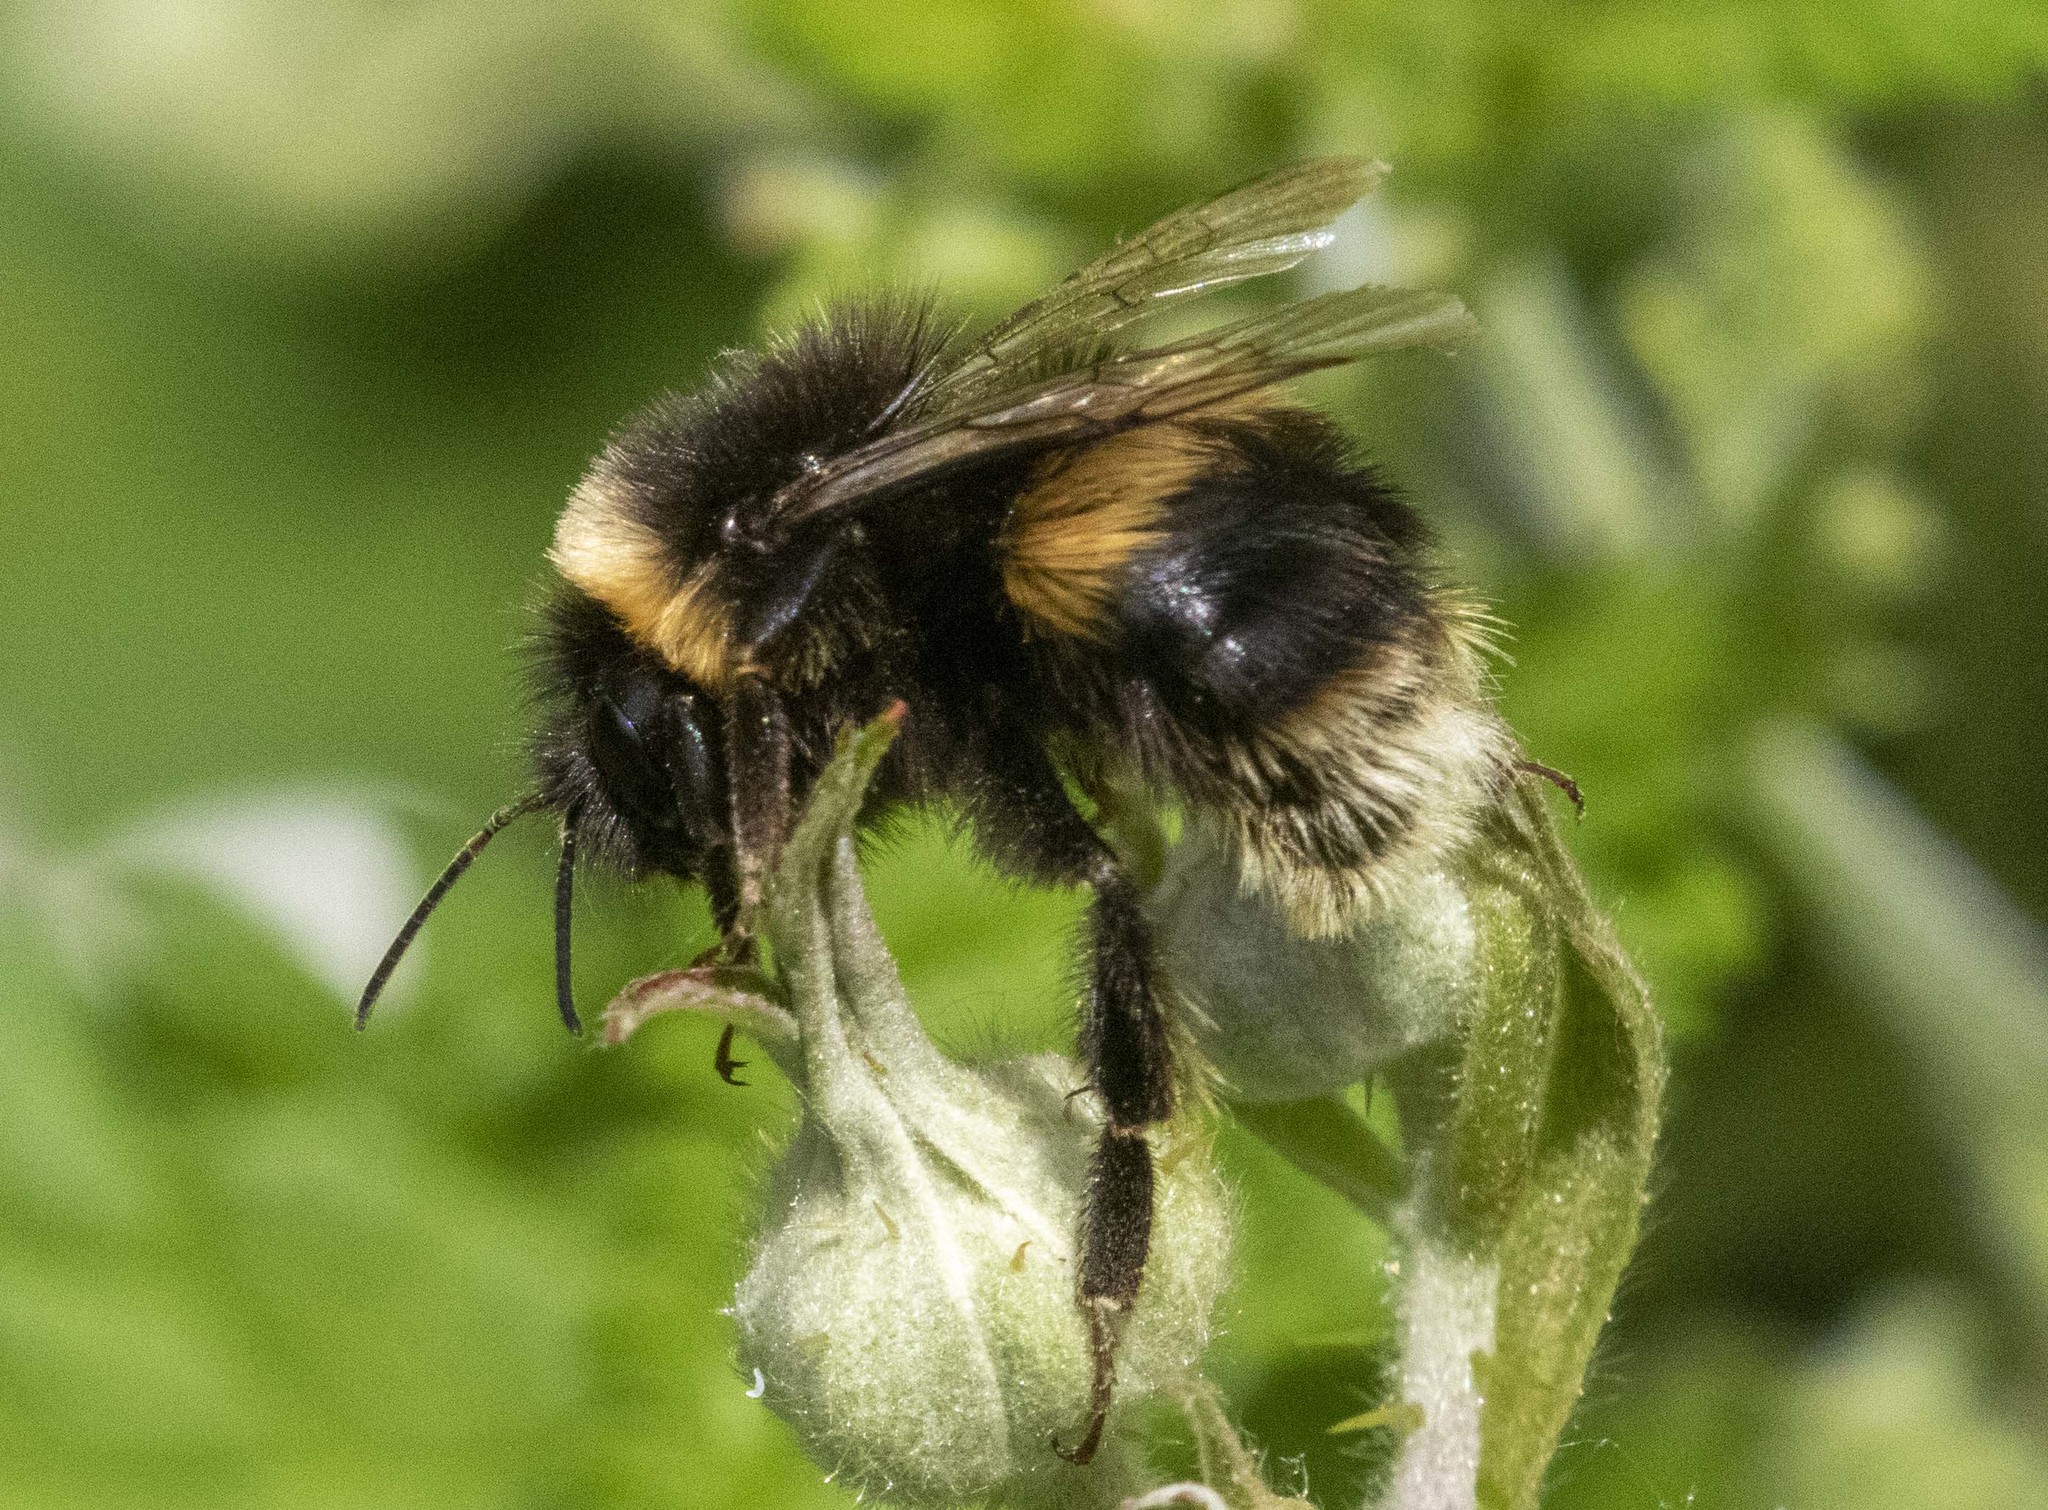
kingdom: Animalia
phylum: Arthropoda
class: Insecta
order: Hymenoptera
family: Apidae
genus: Bombus
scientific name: Bombus terrestris
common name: Buff-tailed bumblebee
